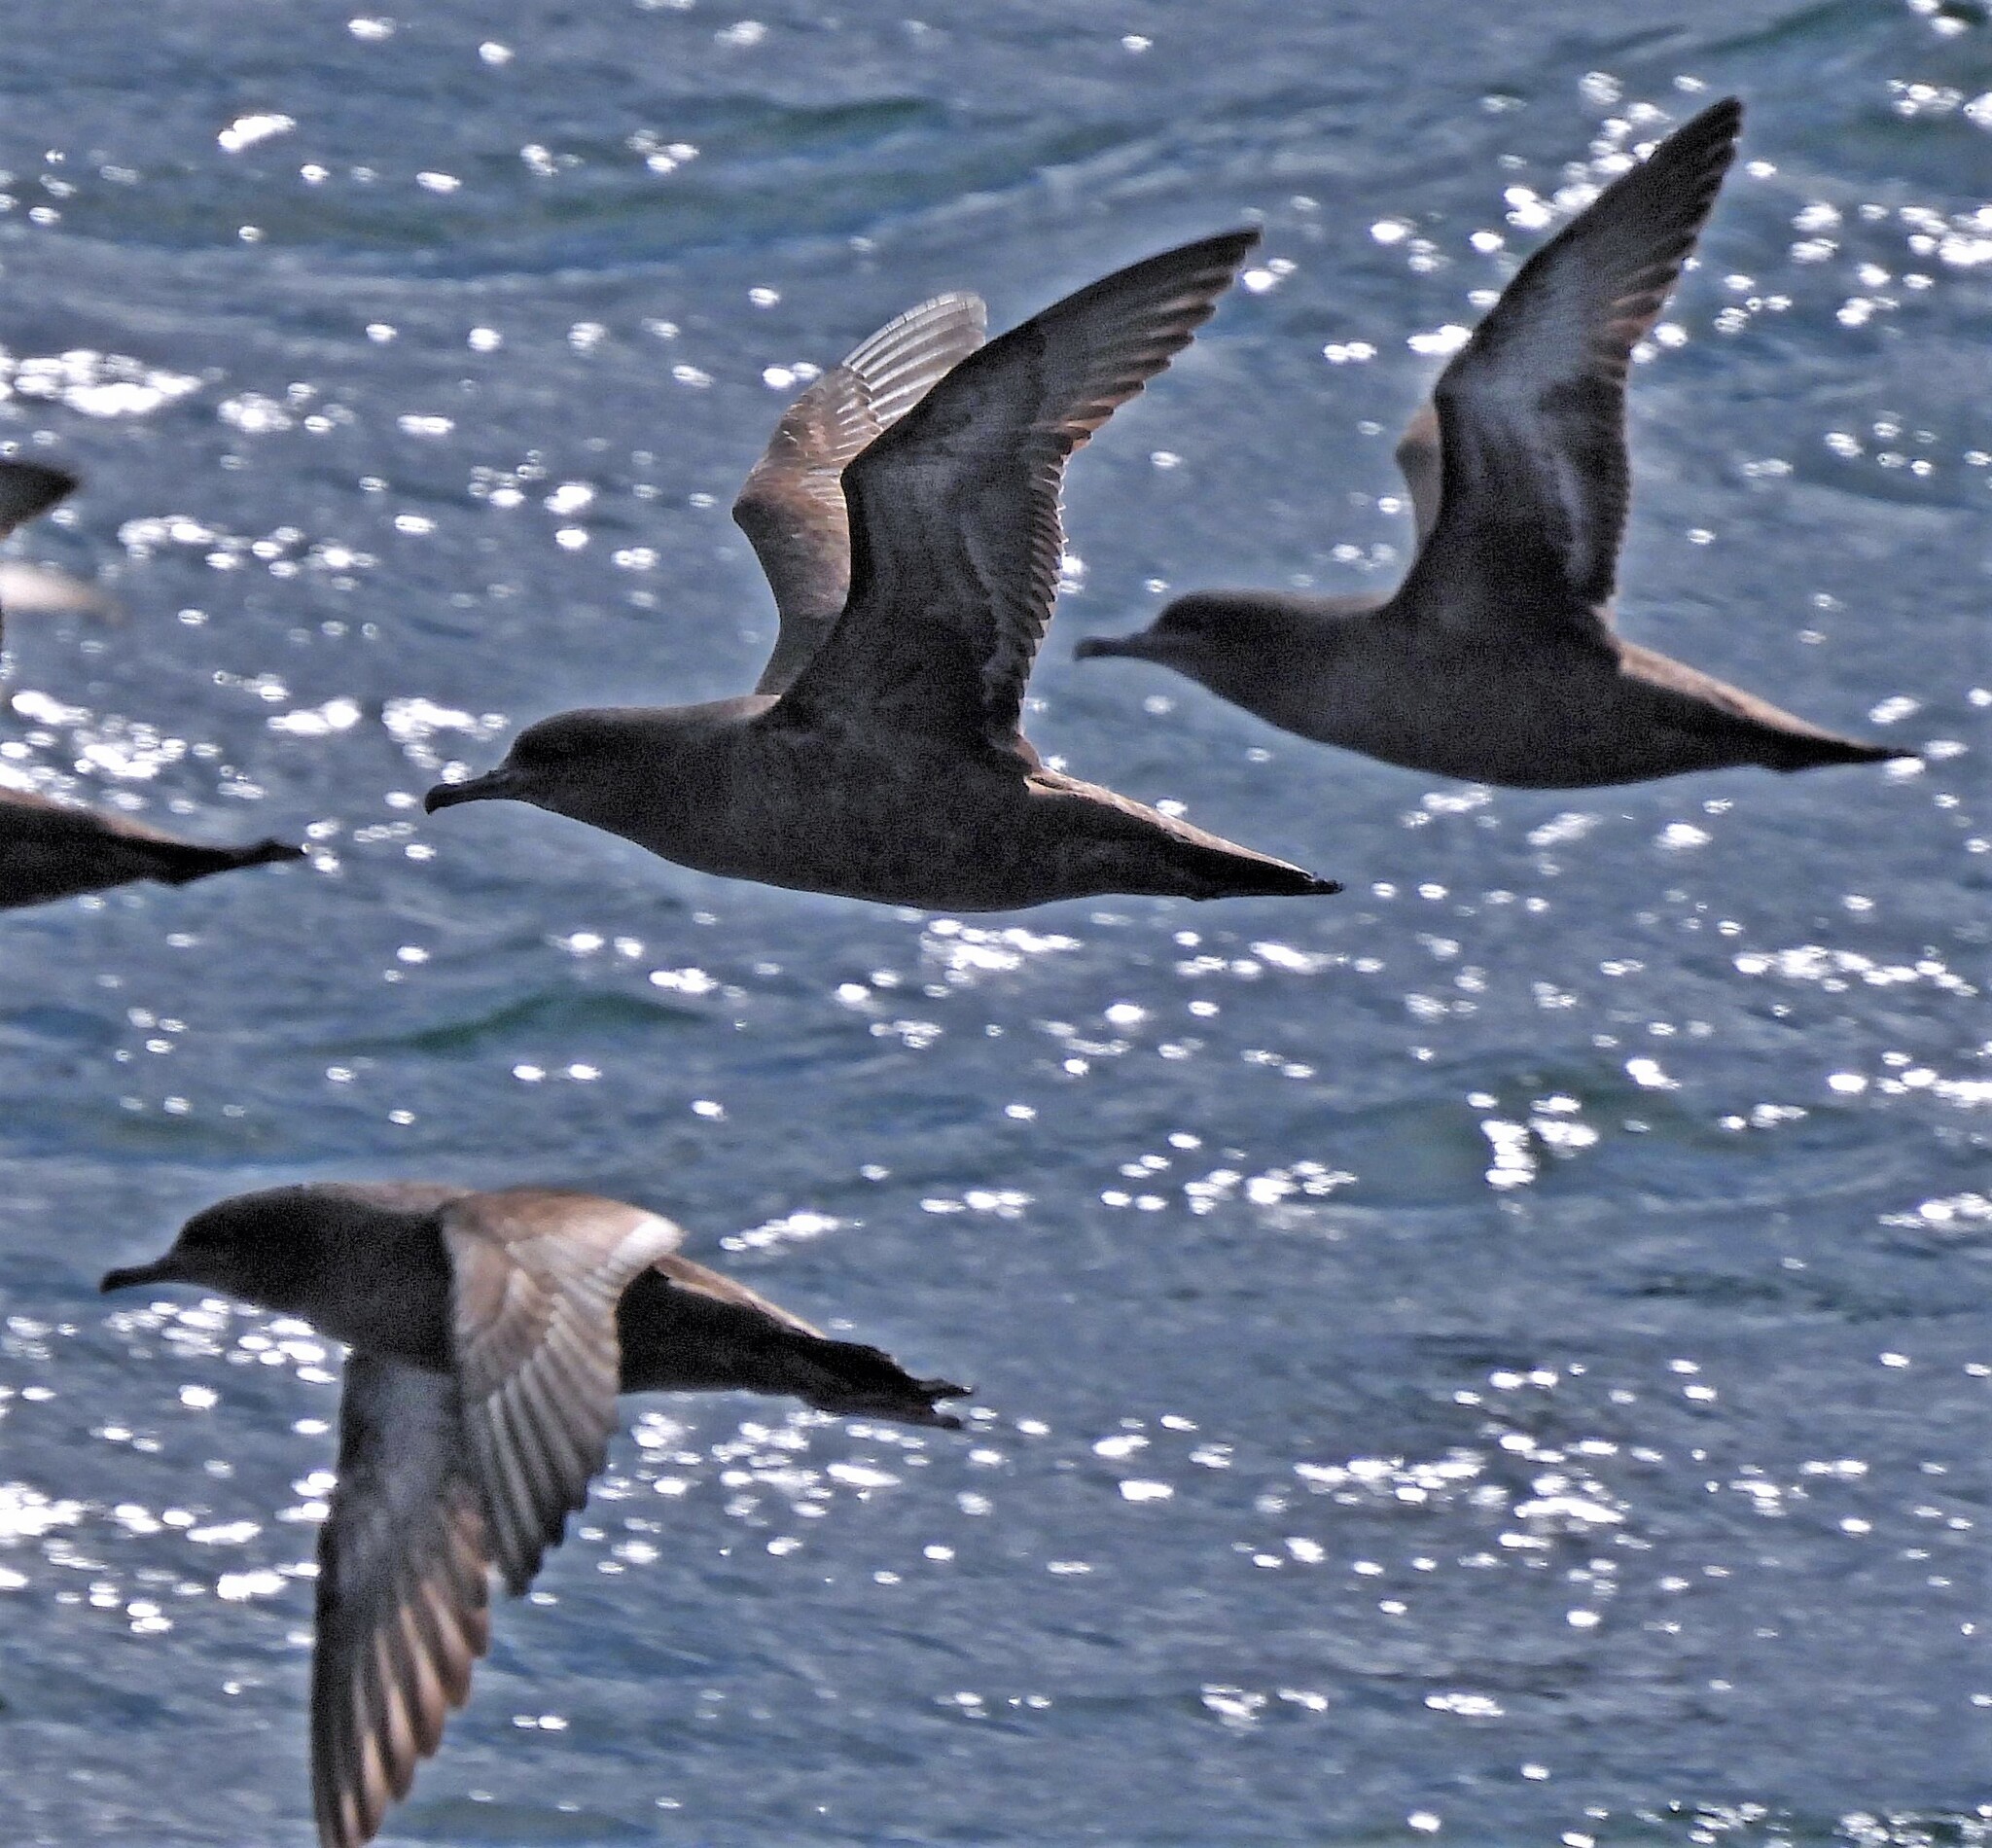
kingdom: Animalia
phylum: Chordata
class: Aves
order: Procellariiformes
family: Procellariidae
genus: Puffinus
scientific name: Puffinus griseus
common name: Sooty shearwater
